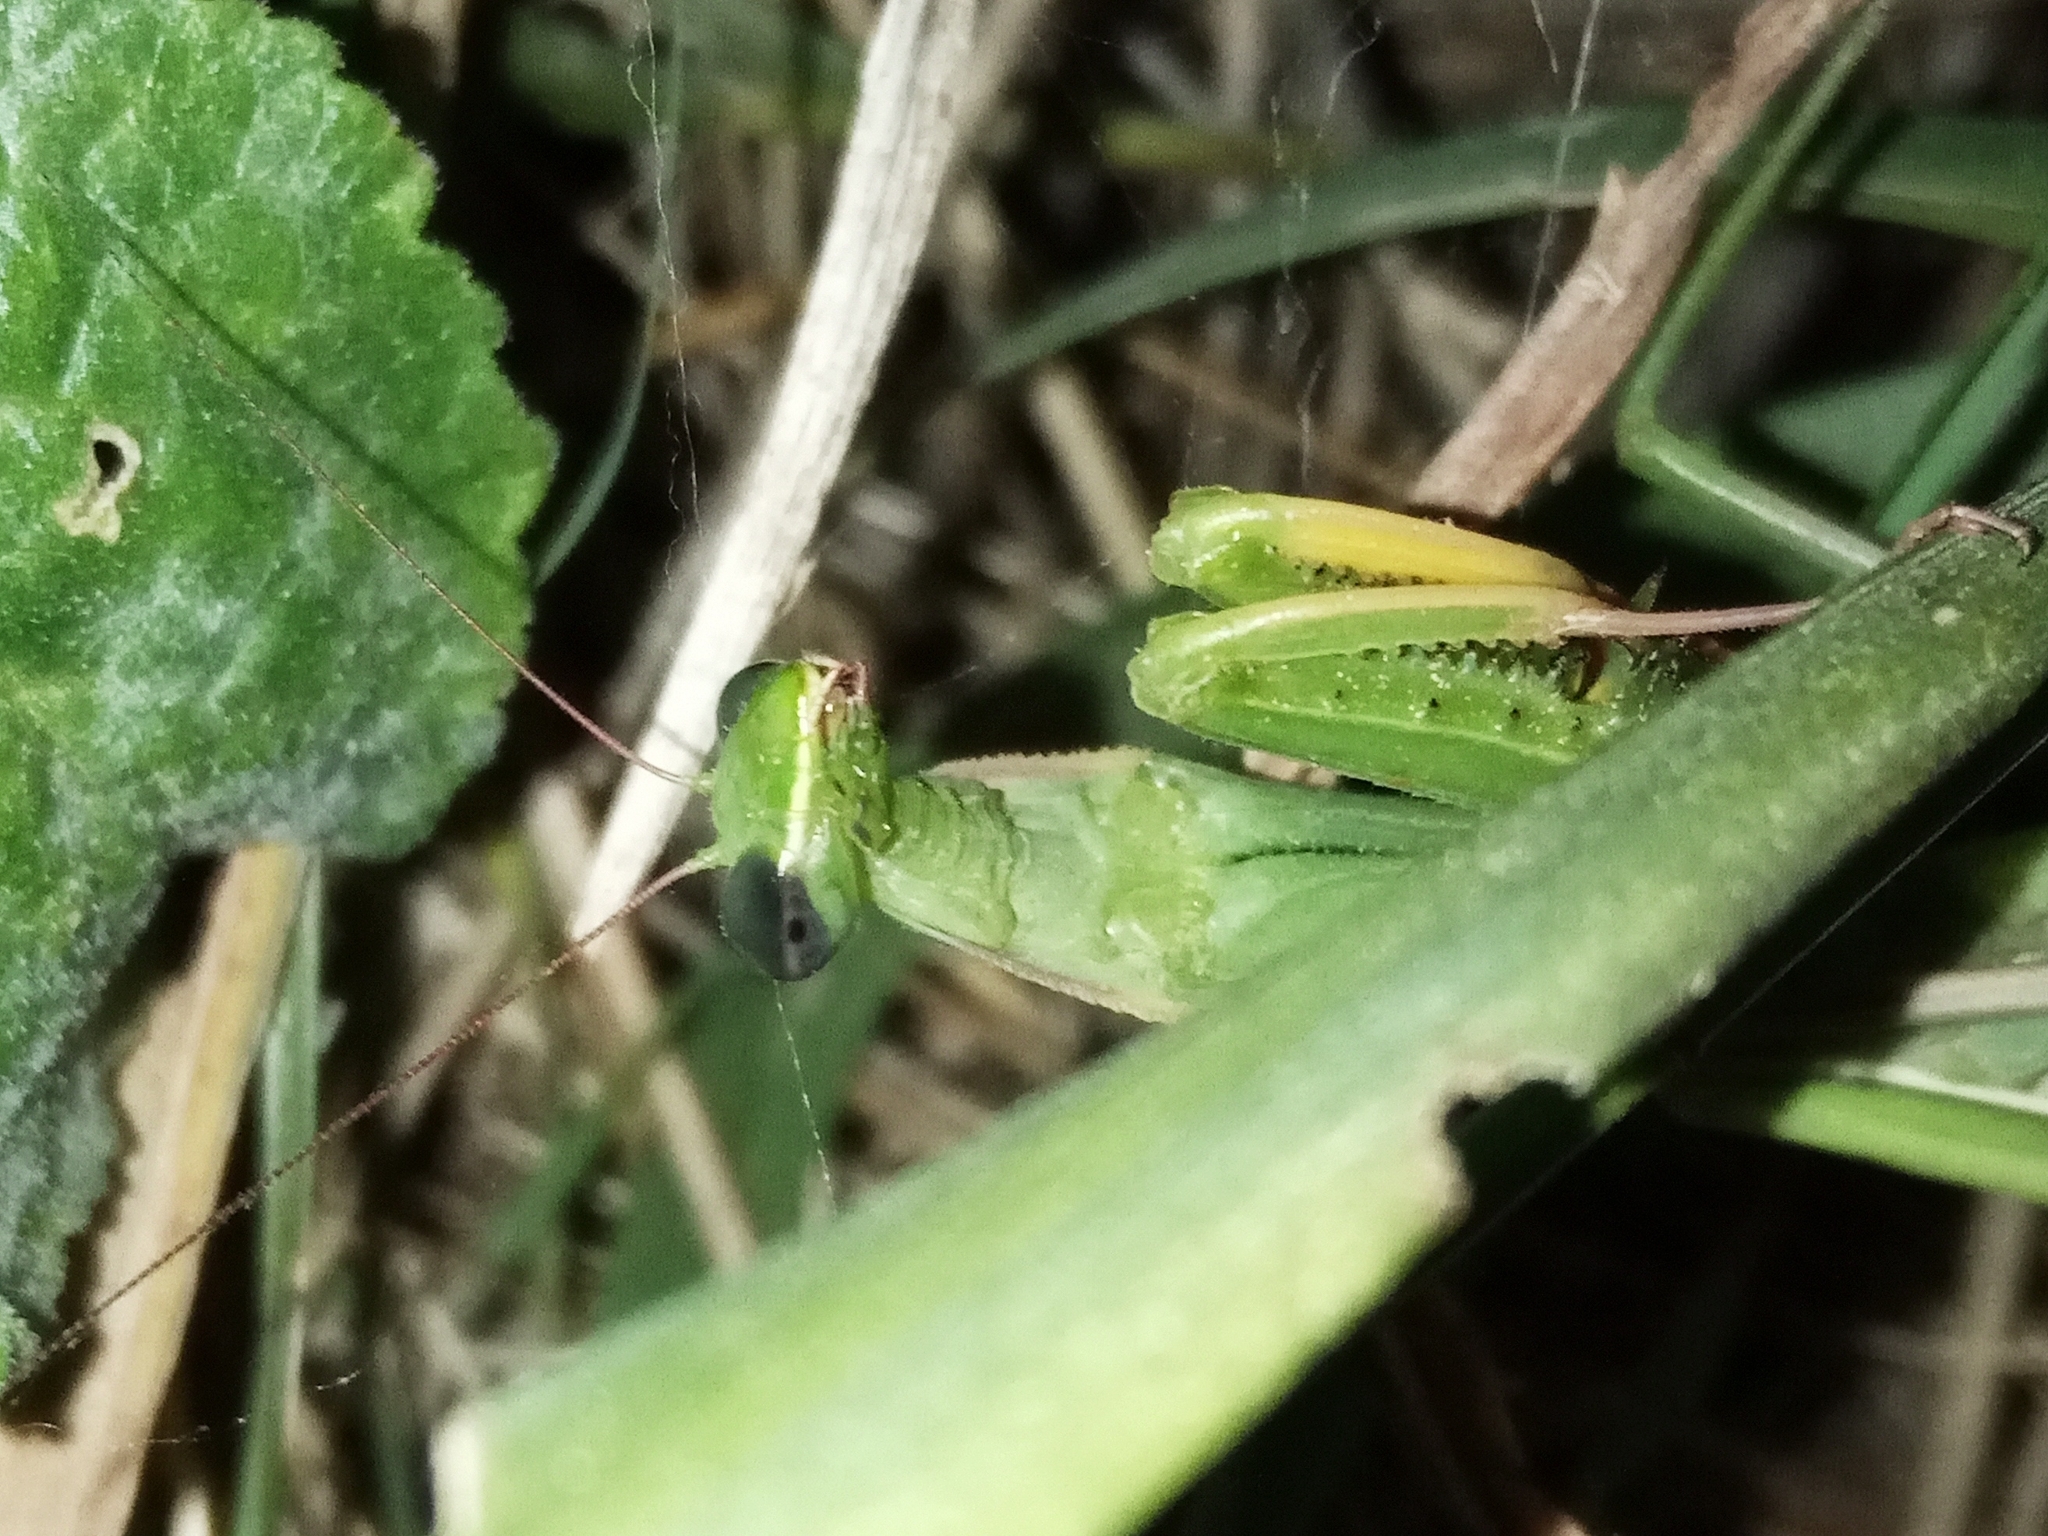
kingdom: Animalia
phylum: Arthropoda
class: Insecta
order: Mantodea
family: Mantidae
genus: Mantis
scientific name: Mantis religiosa
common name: Praying mantis
